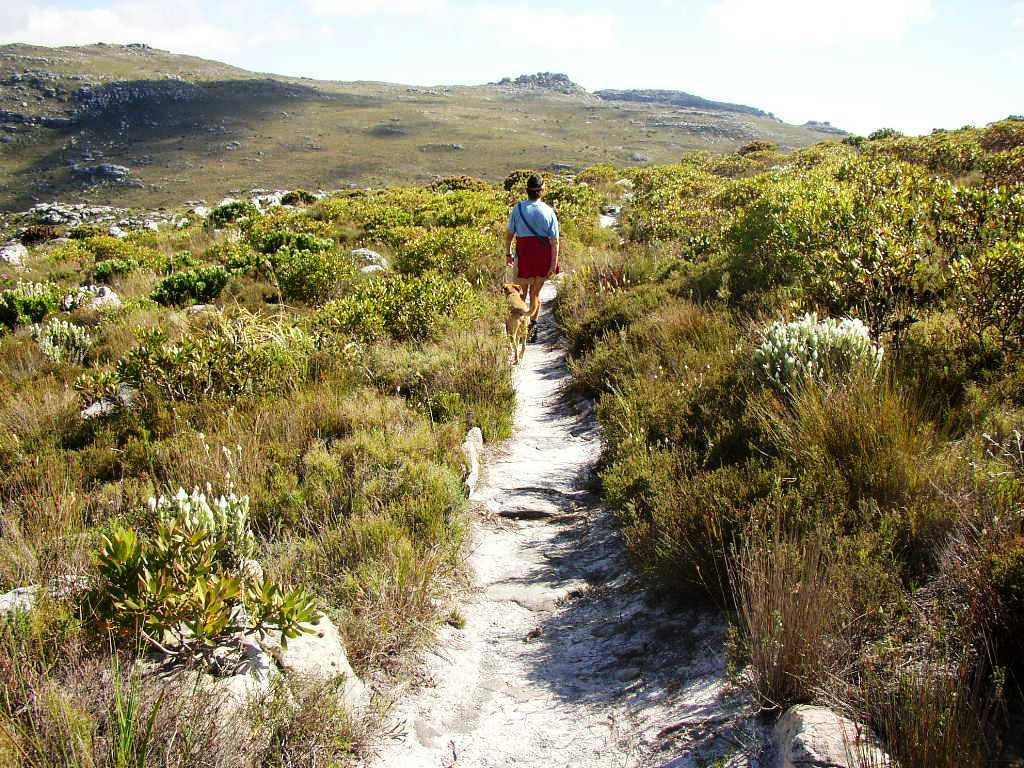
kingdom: Plantae
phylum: Tracheophyta
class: Magnoliopsida
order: Proteales
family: Proteaceae
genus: Leucadendron
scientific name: Leucadendron laureolum
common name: Golden sunshinebush
